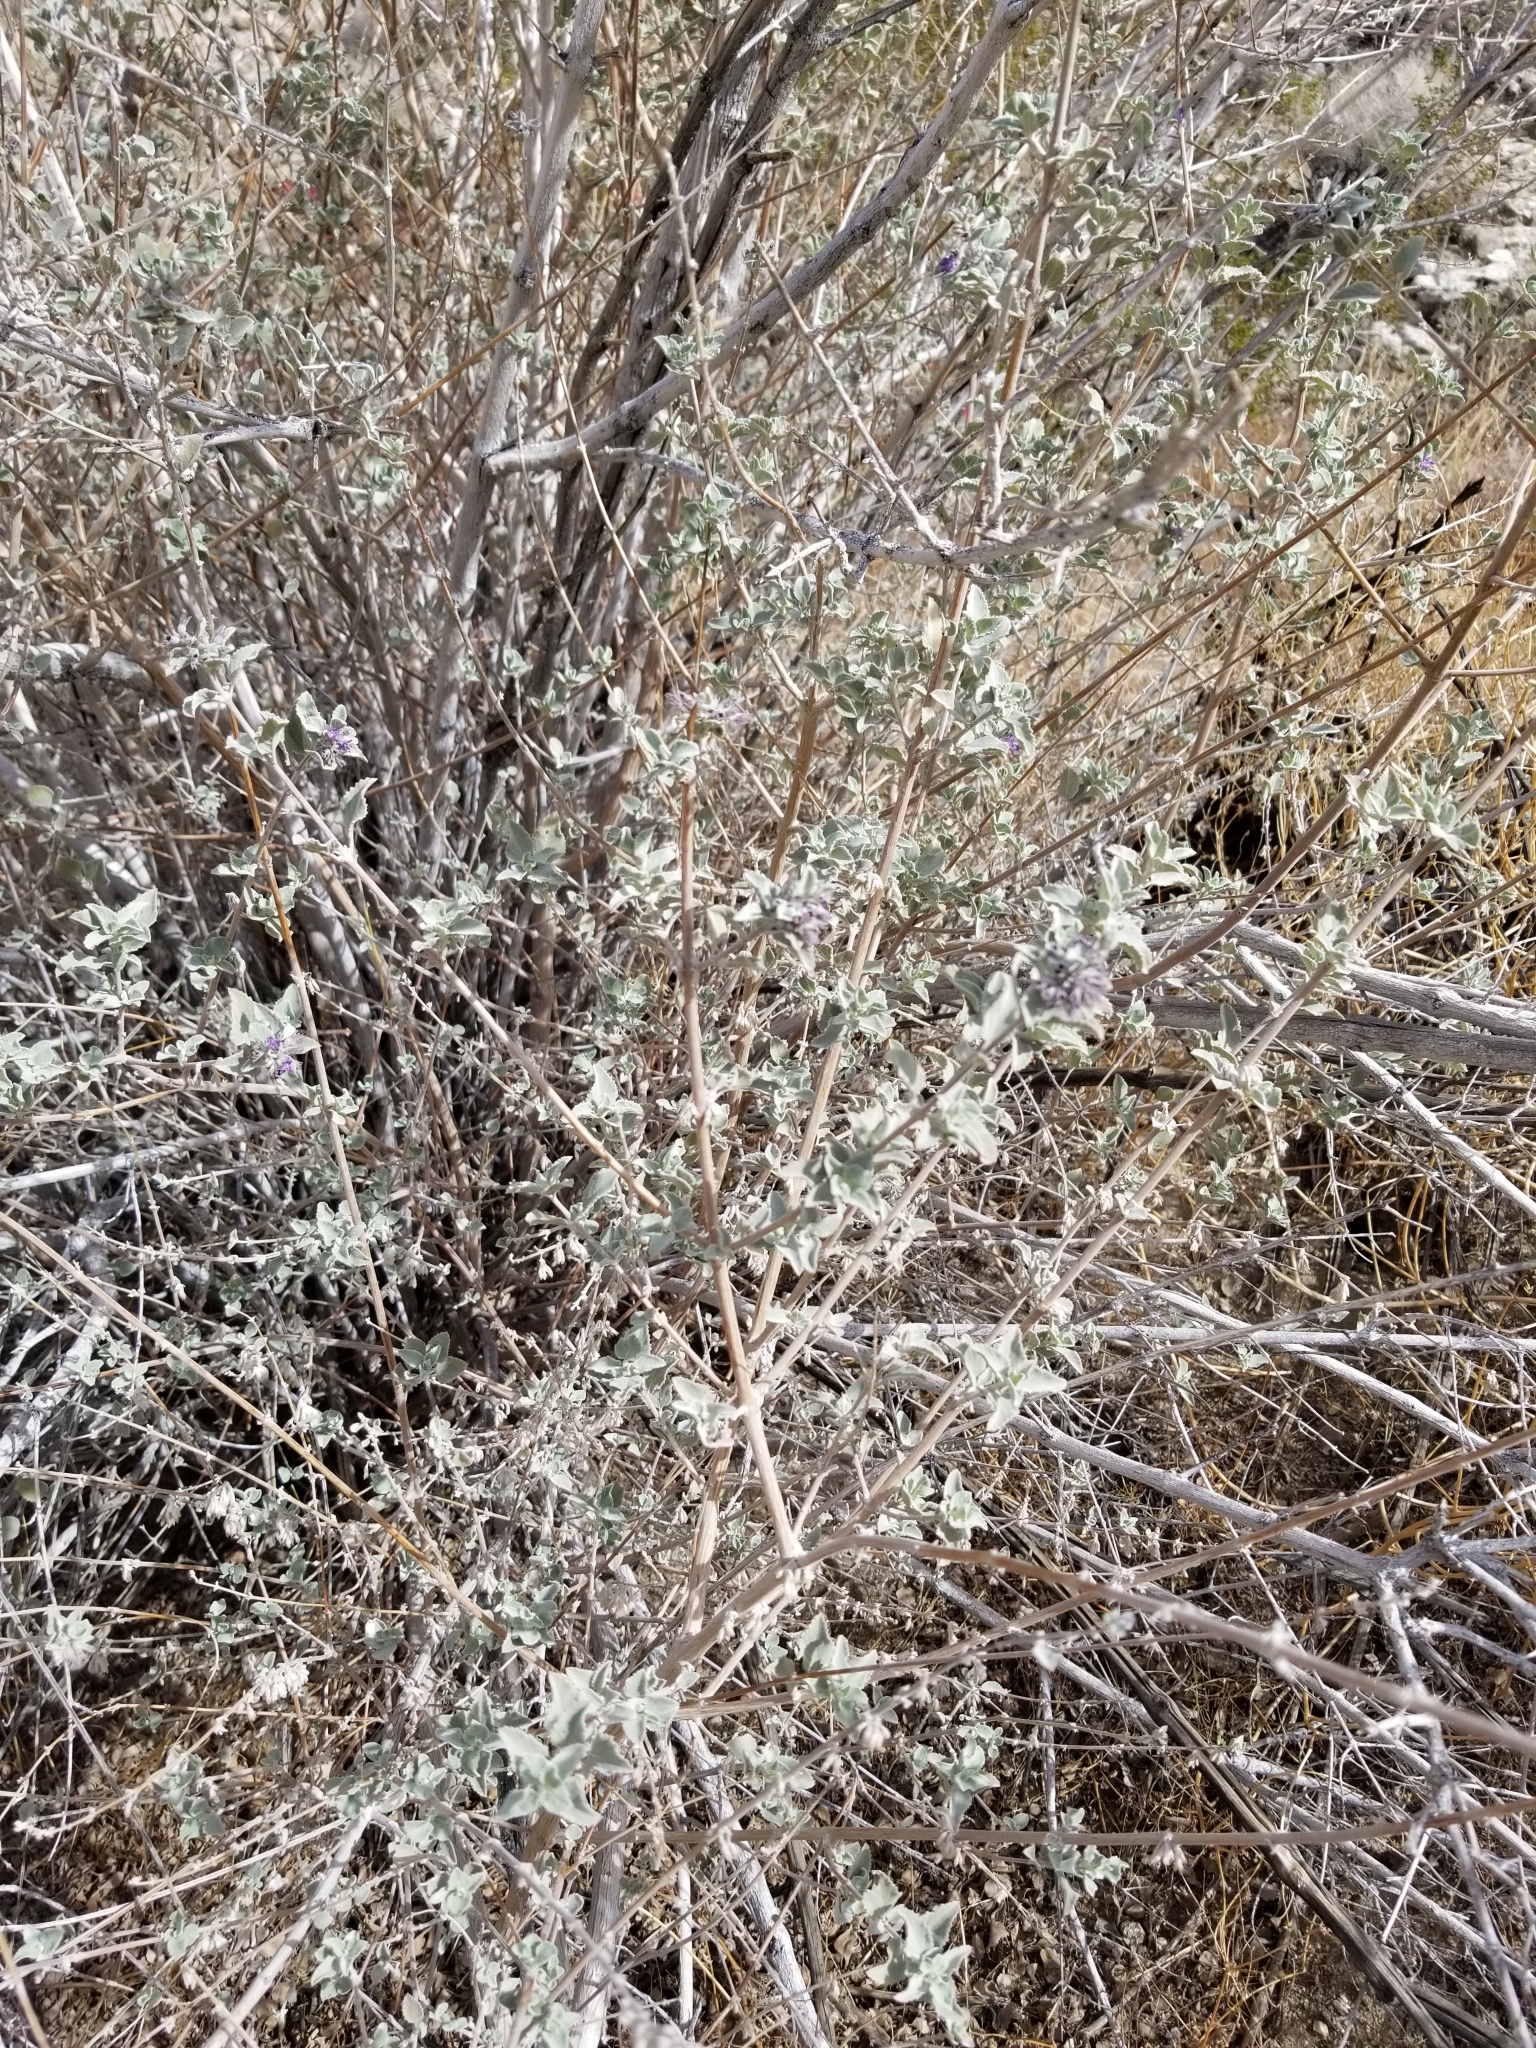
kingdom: Plantae
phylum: Tracheophyta
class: Magnoliopsida
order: Lamiales
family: Lamiaceae
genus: Condea
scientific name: Condea emoryi
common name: Chia
